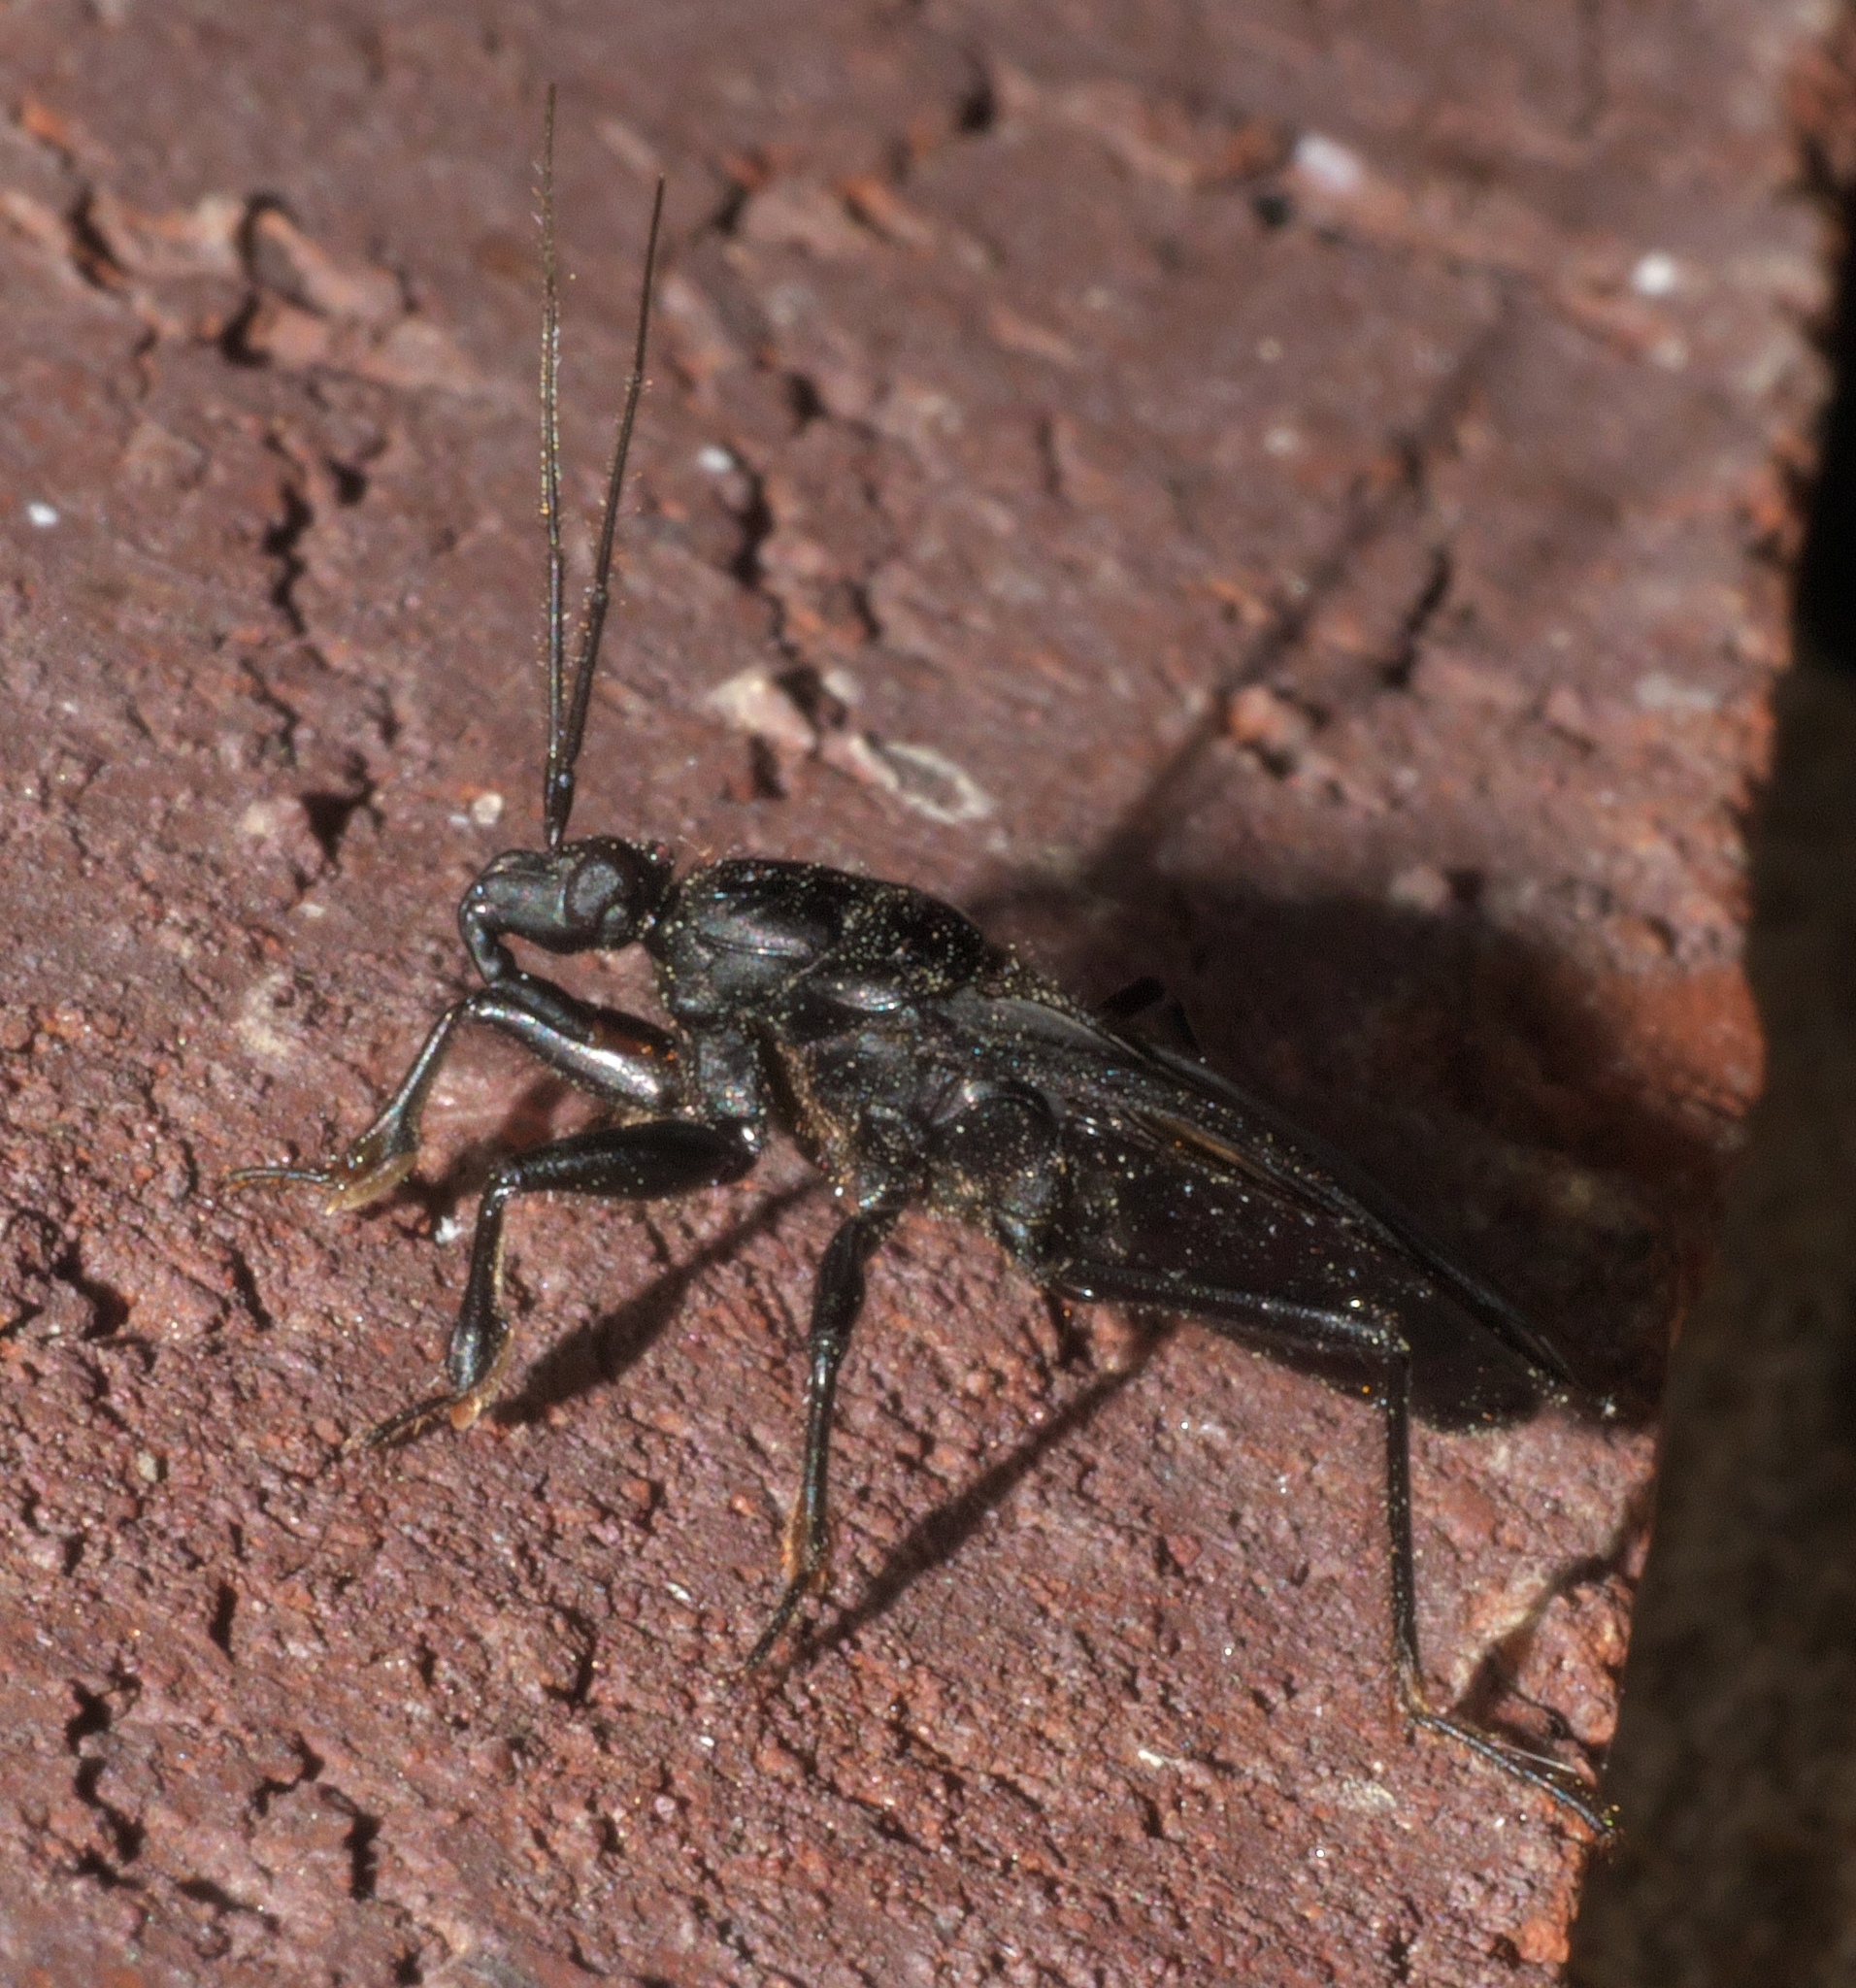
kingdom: Animalia
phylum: Arthropoda
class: Insecta
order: Hemiptera
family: Reduviidae
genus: Melanolestes
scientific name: Melanolestes picipes
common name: Assassin bug
